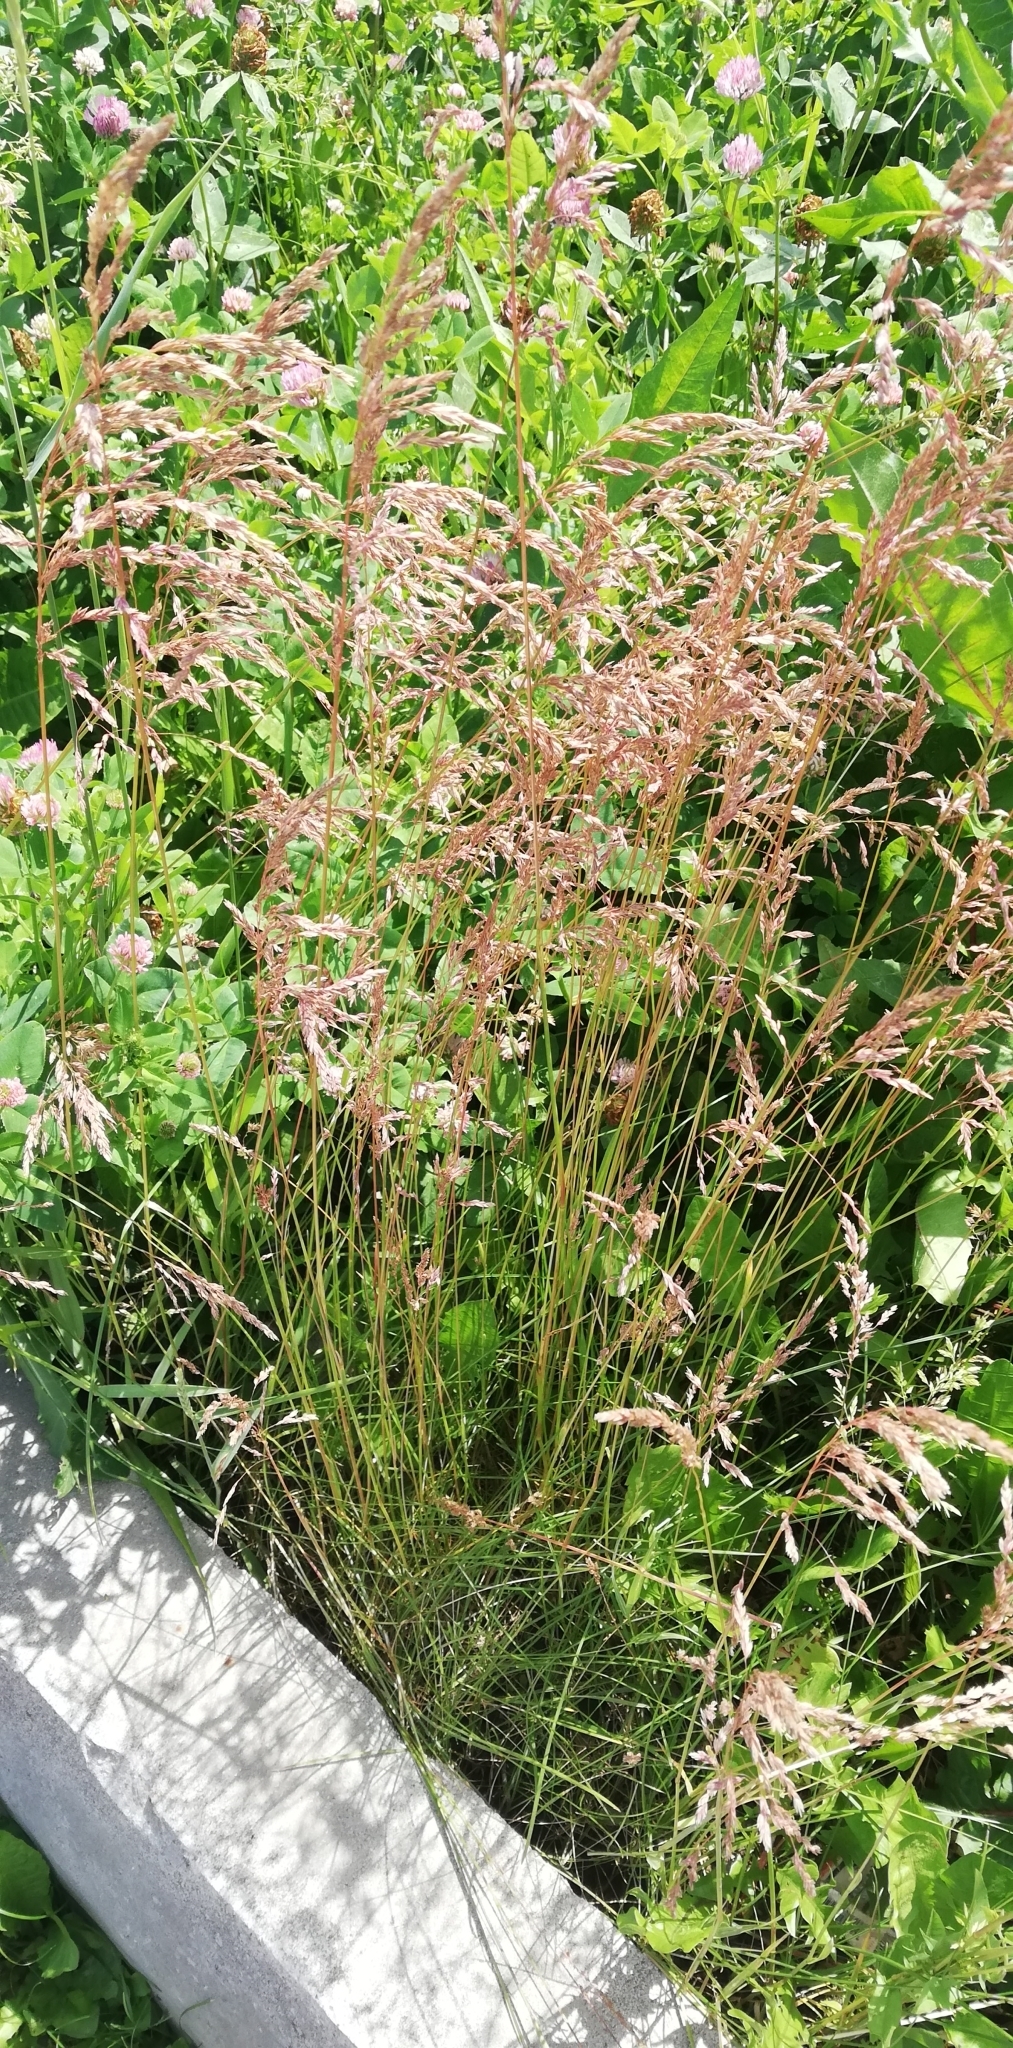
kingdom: Plantae
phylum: Tracheophyta
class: Liliopsida
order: Poales
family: Poaceae
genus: Poa
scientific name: Poa angustifolia
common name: Narrow-leaved meadow-grass
